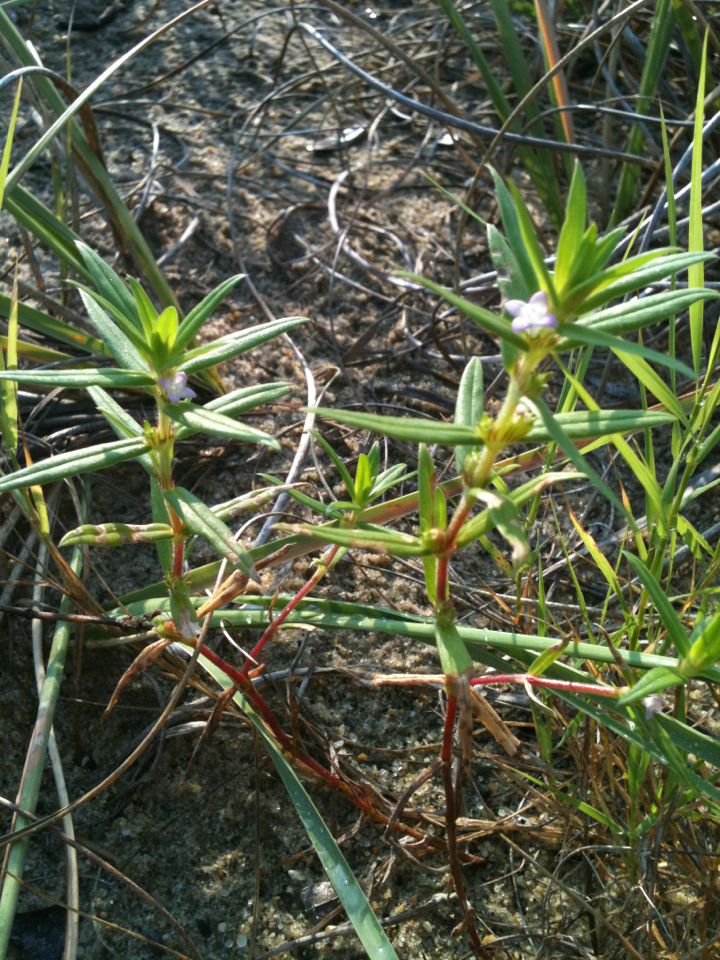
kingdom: Plantae
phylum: Tracheophyta
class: Magnoliopsida
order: Gentianales
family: Rubiaceae
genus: Hexasepalum
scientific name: Hexasepalum teres
